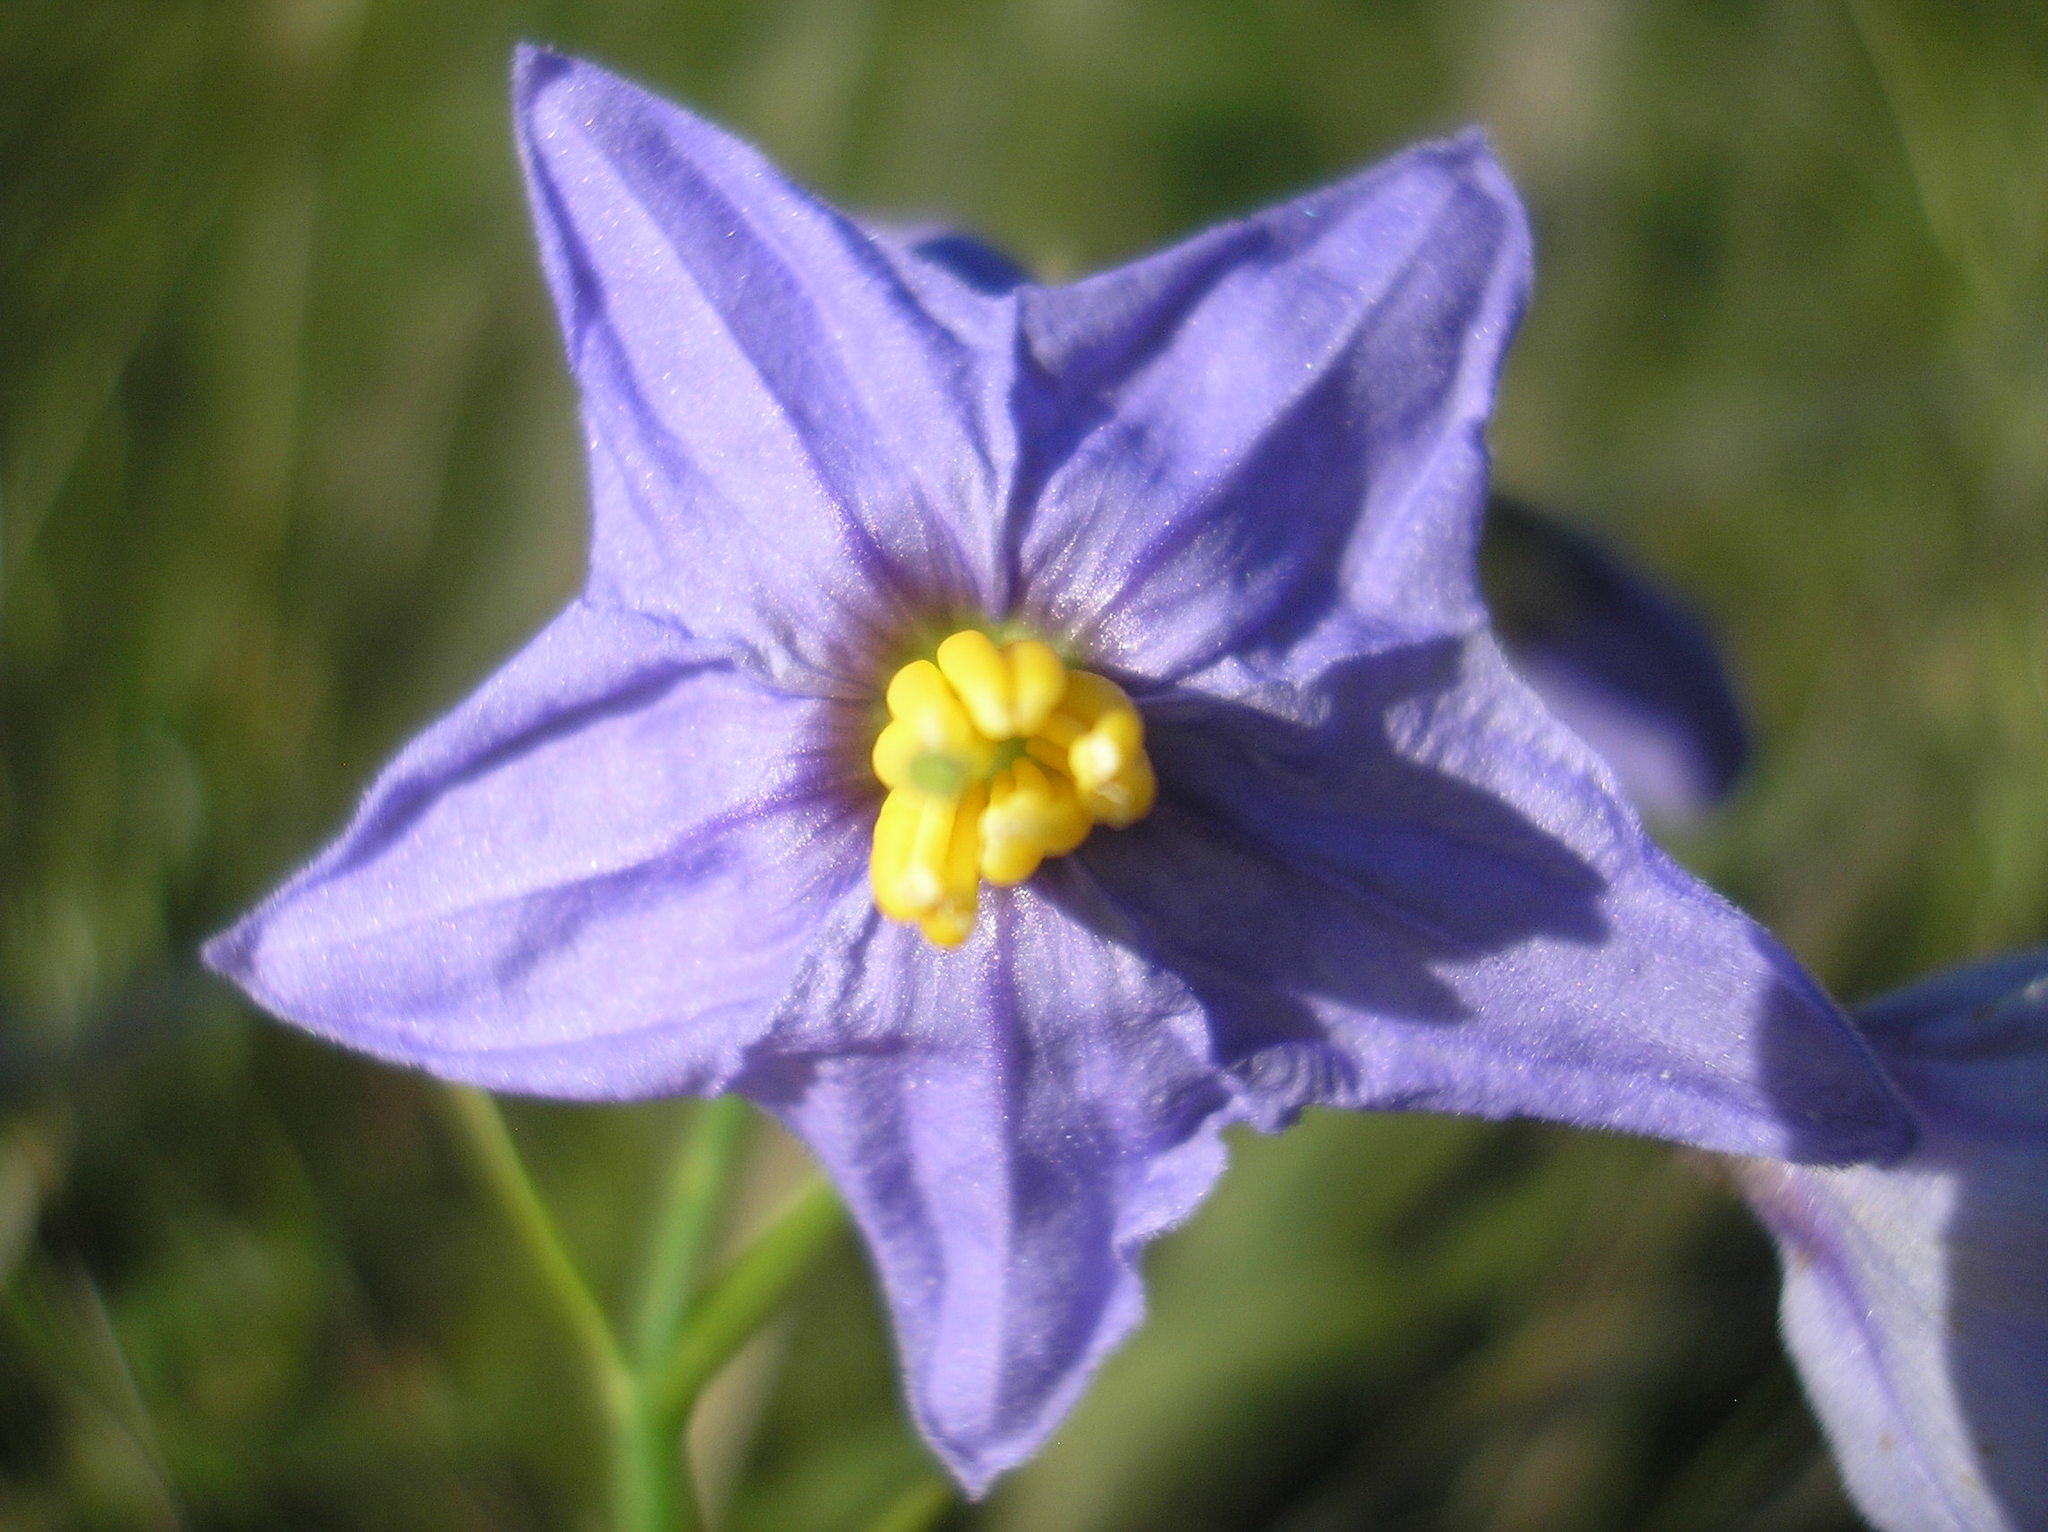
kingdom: Plantae
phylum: Tracheophyta
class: Magnoliopsida
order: Solanales
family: Solanaceae
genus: Solanum
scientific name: Solanum amygdalifolium
